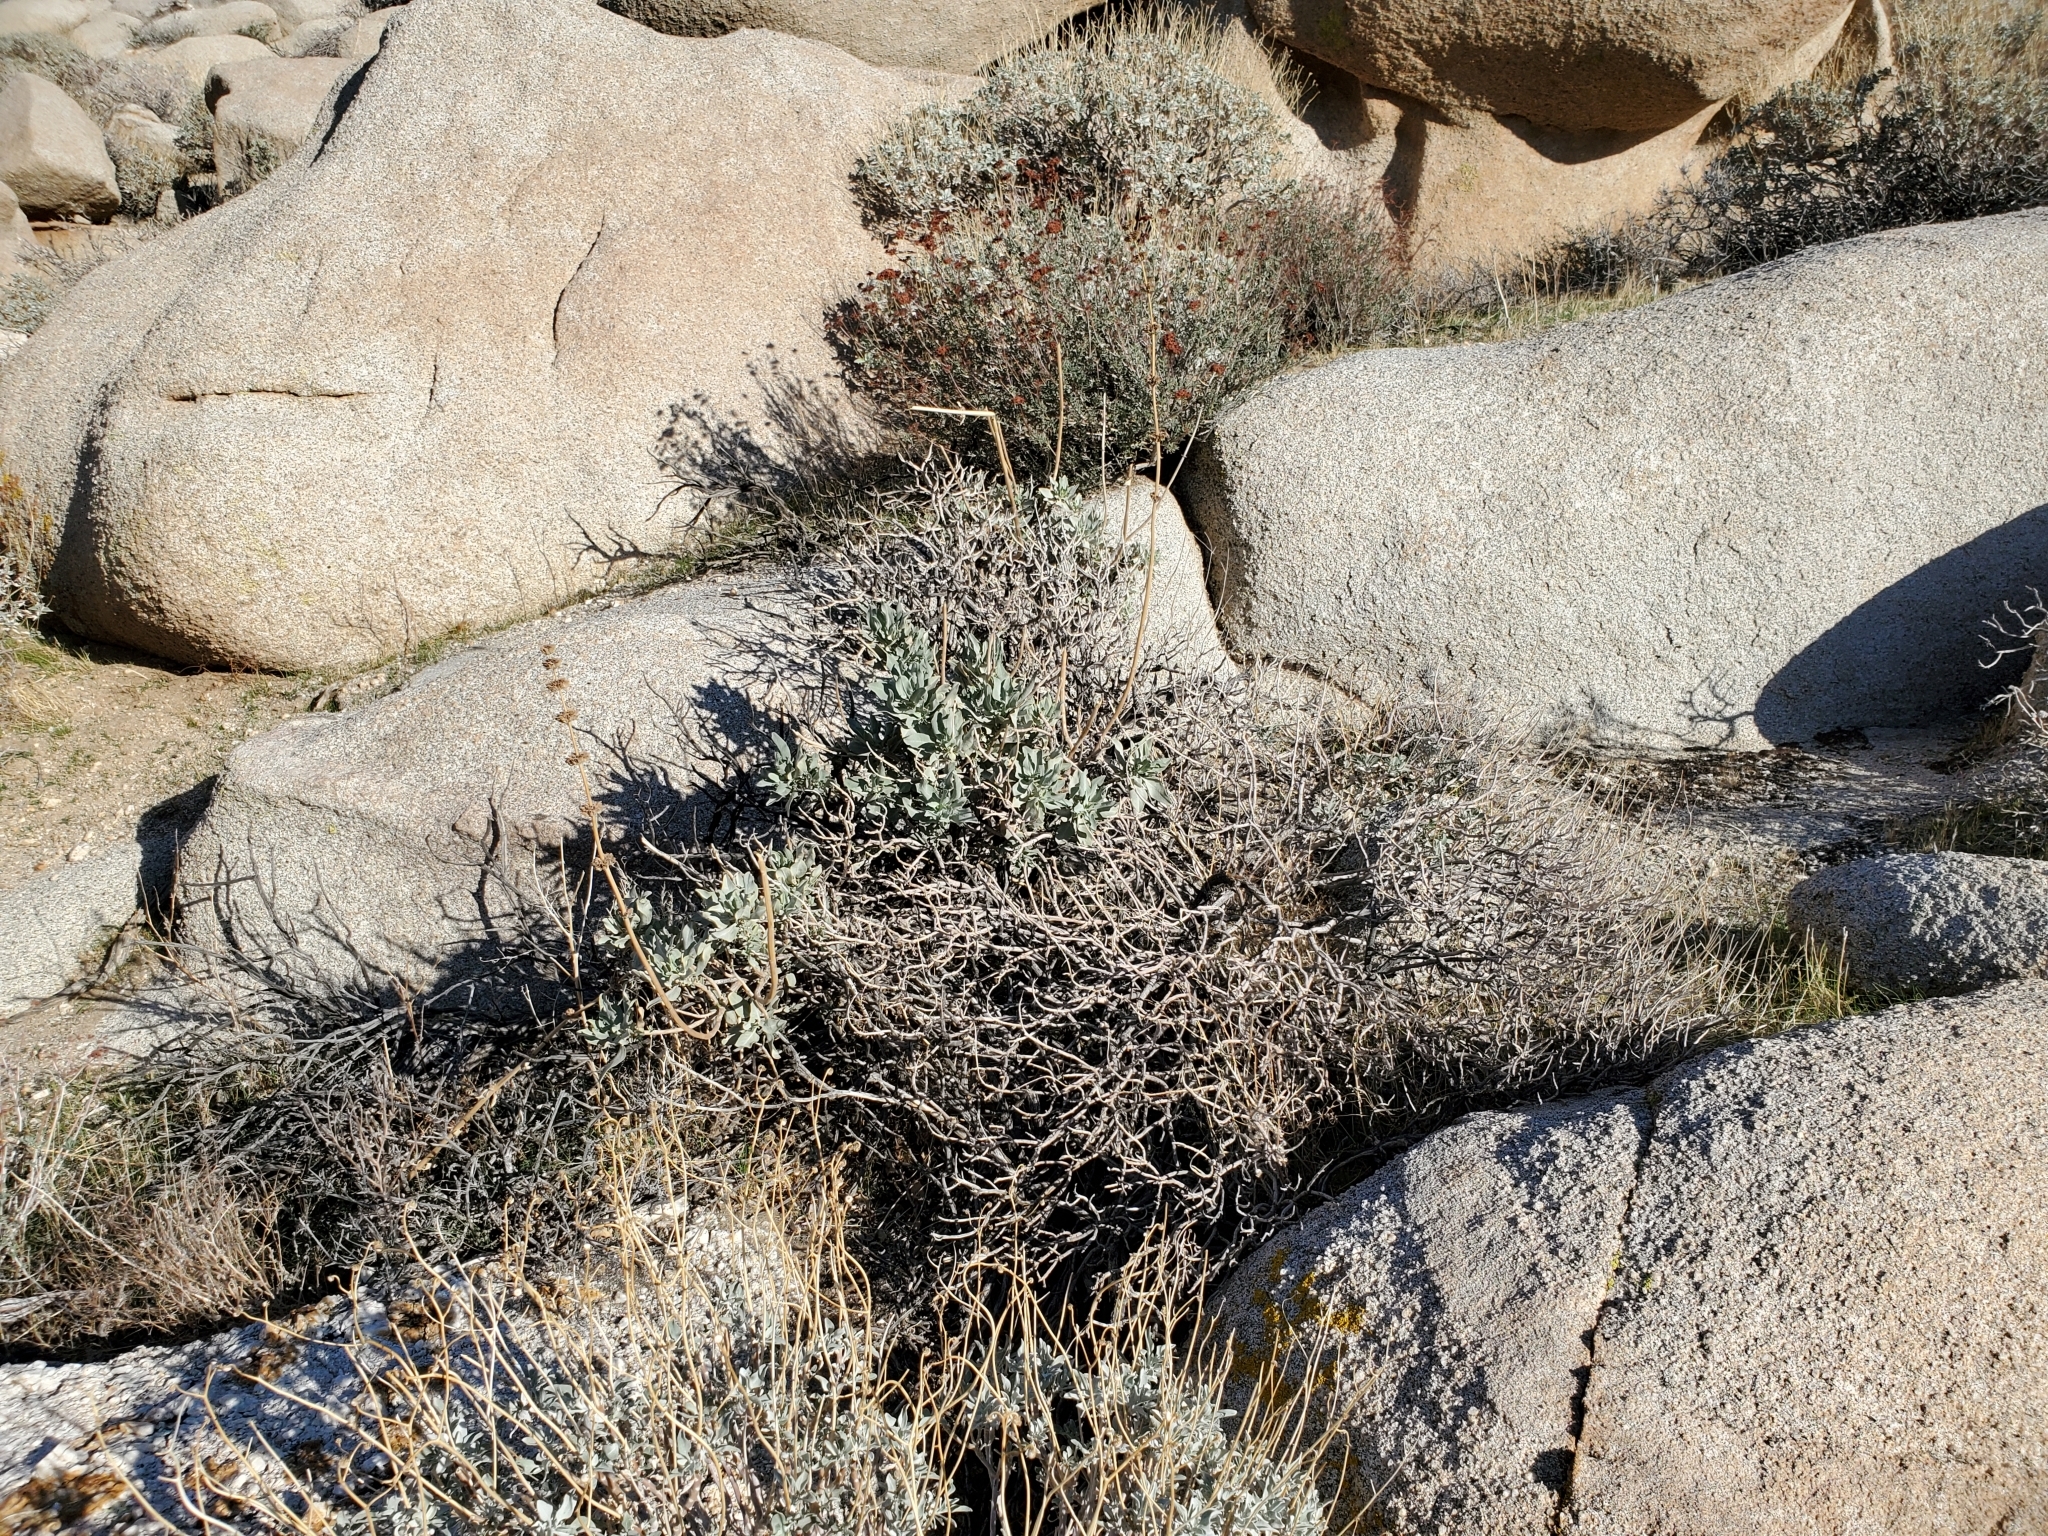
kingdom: Plantae
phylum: Tracheophyta
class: Magnoliopsida
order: Lamiales
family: Lamiaceae
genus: Salvia
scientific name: Salvia vaseyi
